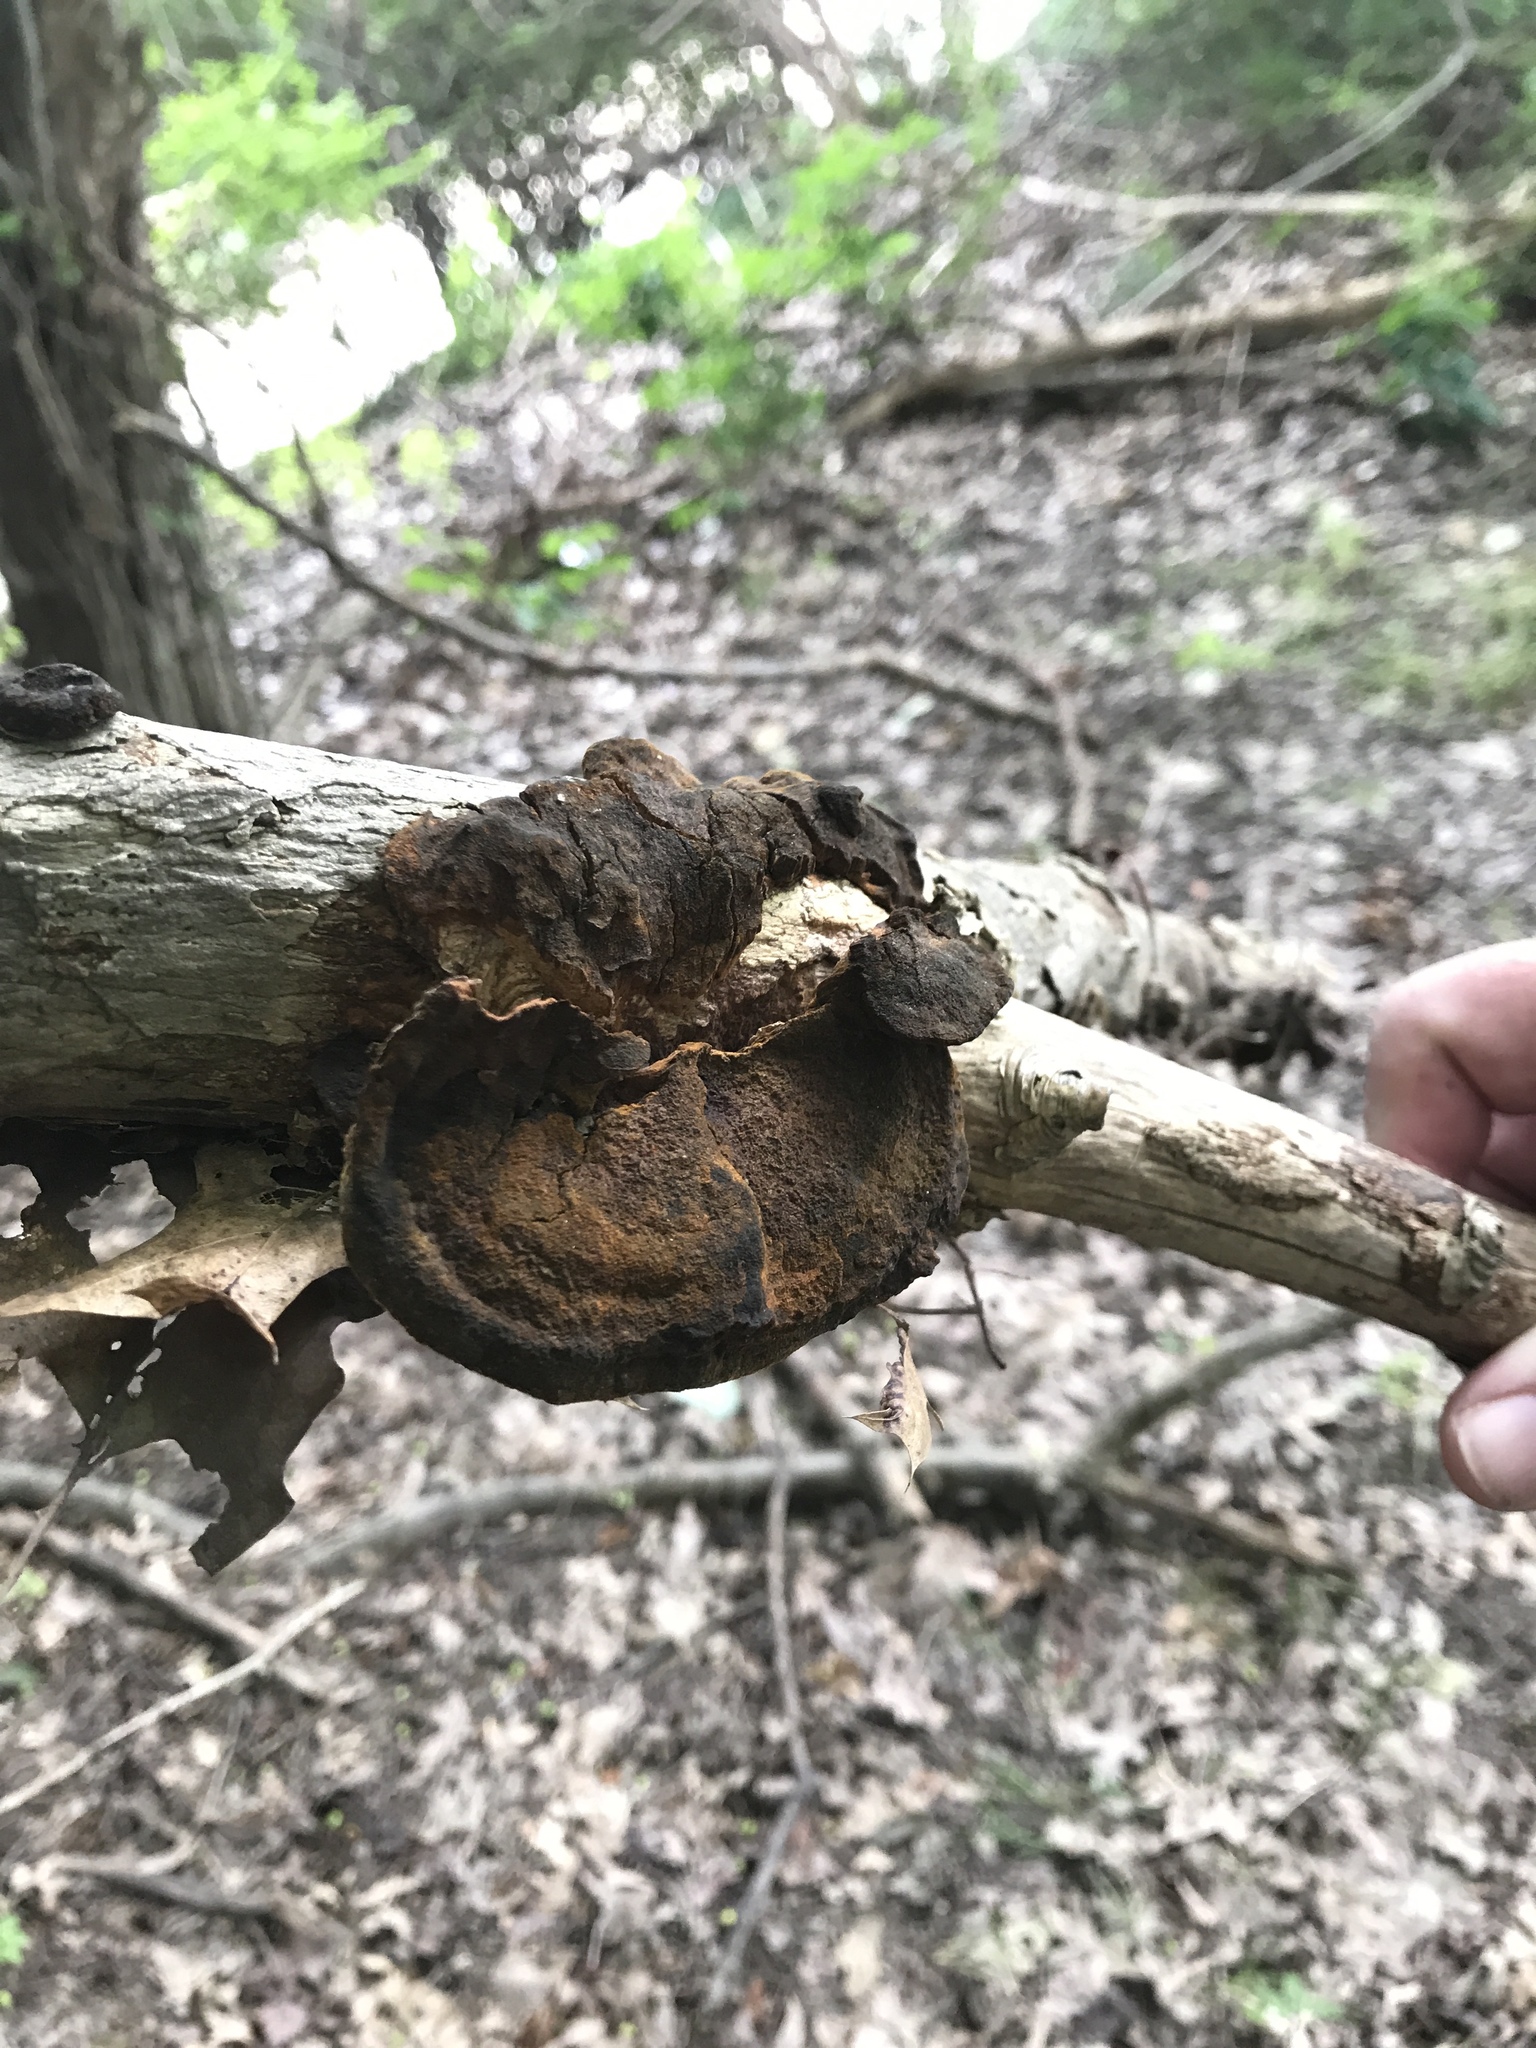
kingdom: Fungi
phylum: Basidiomycota
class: Agaricomycetes
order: Hymenochaetales
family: Hymenochaetaceae
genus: Phellinus
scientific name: Phellinus gilvus
